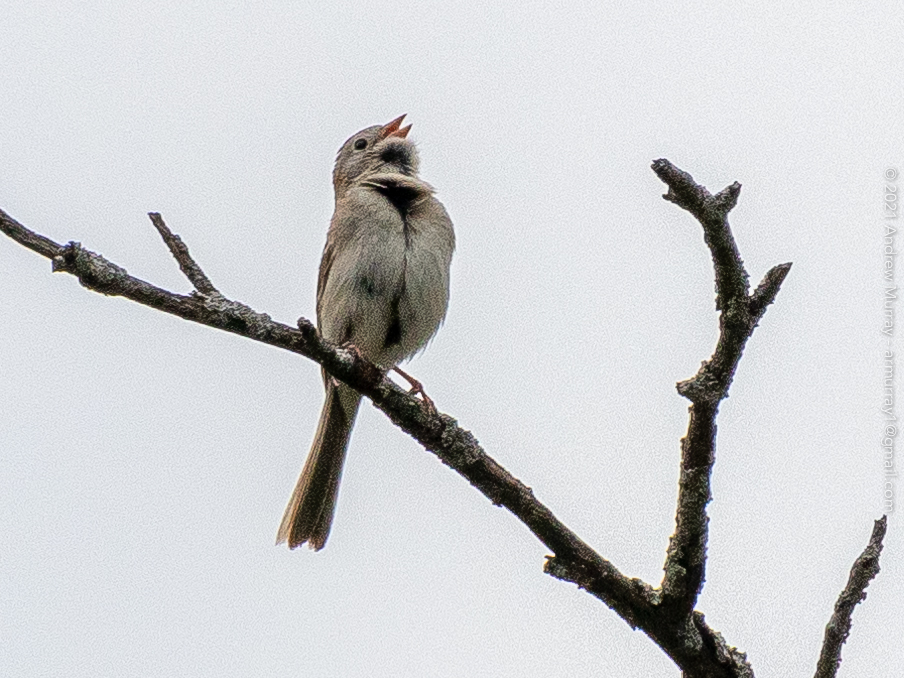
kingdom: Animalia
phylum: Chordata
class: Aves
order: Passeriformes
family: Passerellidae
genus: Spizella
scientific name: Spizella pusilla
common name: Field sparrow
